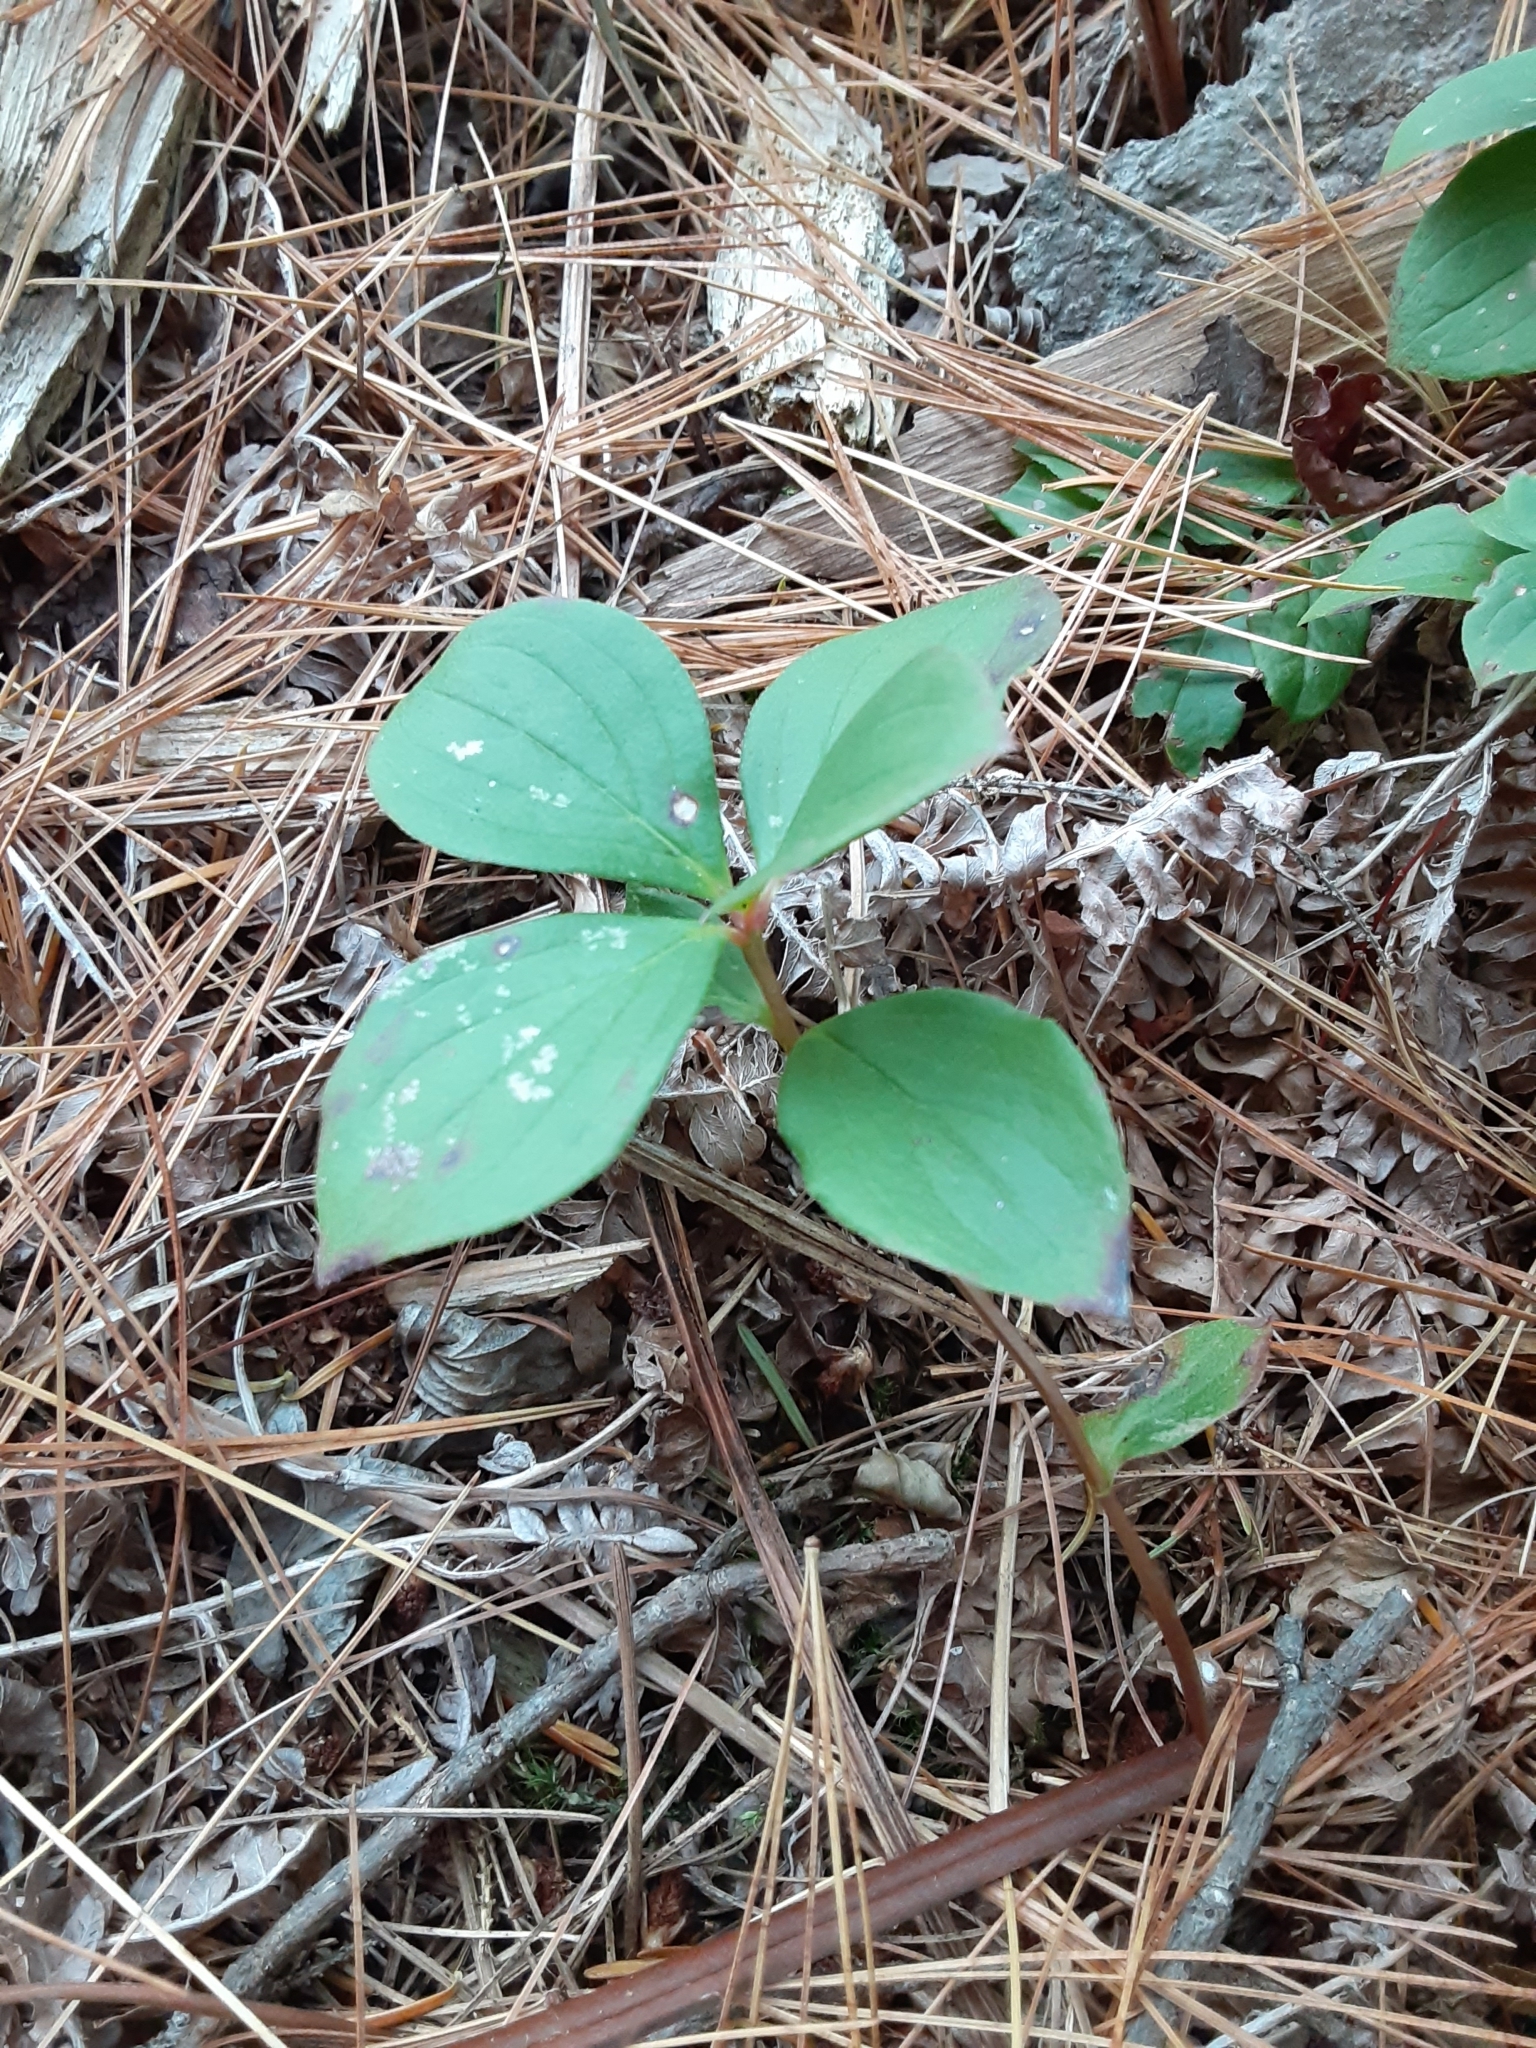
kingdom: Plantae
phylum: Tracheophyta
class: Magnoliopsida
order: Cornales
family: Cornaceae
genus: Cornus
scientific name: Cornus canadensis
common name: Creeping dogwood
